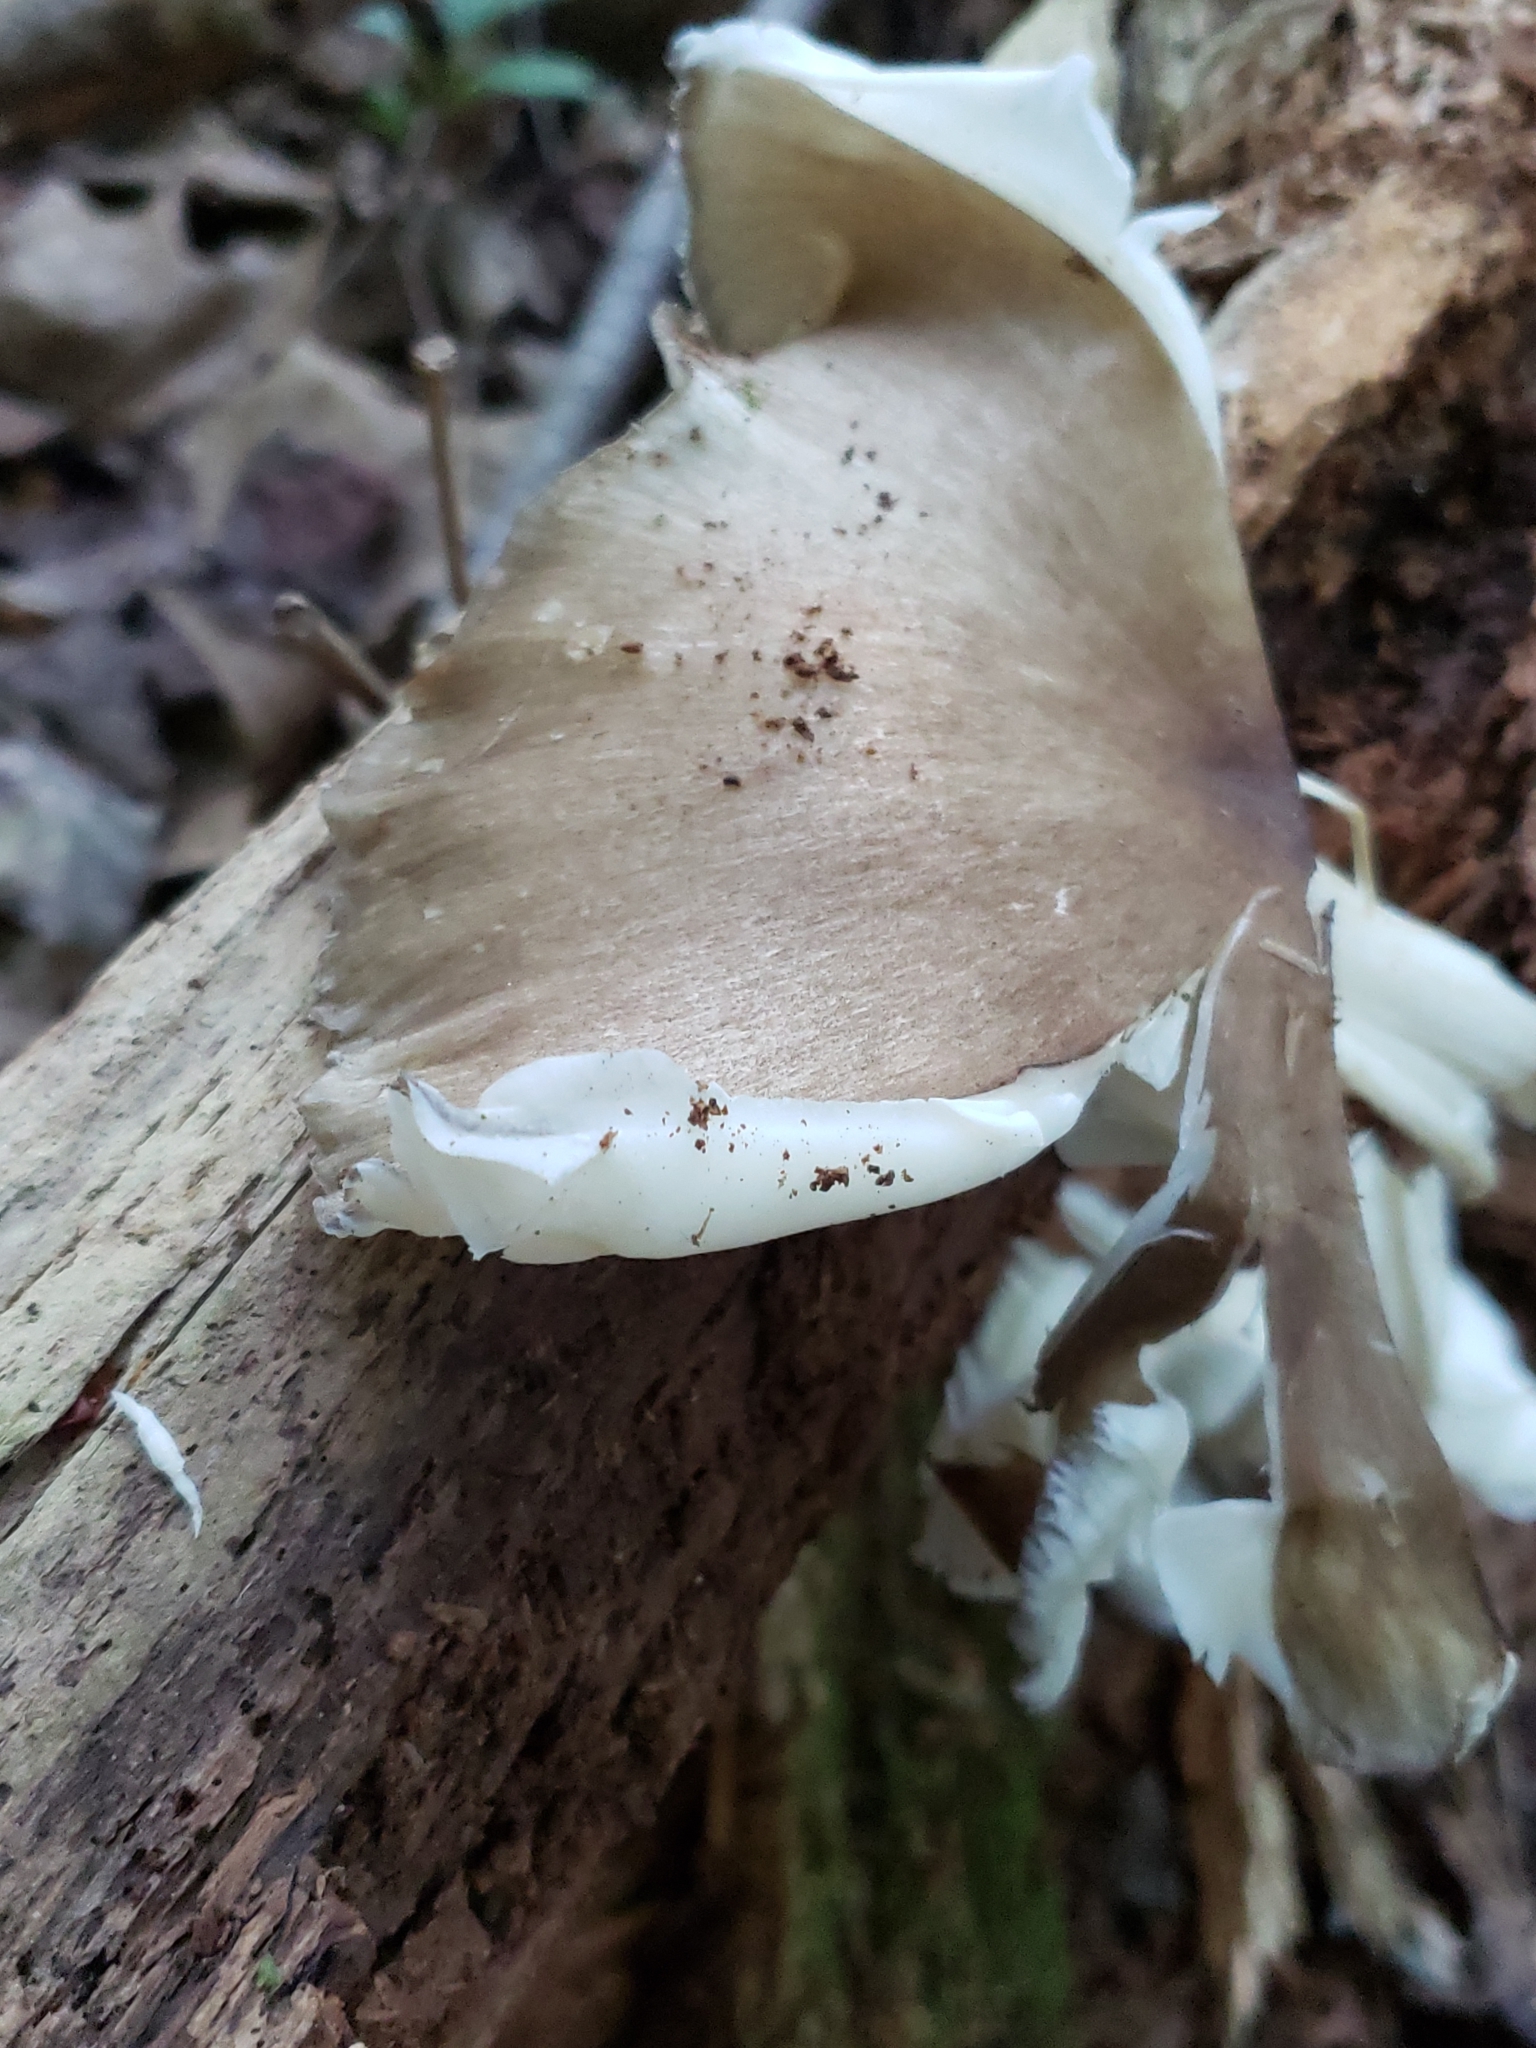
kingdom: Fungi
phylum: Basidiomycota
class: Agaricomycetes
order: Agaricales
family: Tricholomataceae
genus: Megacollybia
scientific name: Megacollybia rodmanii
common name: Eastern american platterful mushroom
